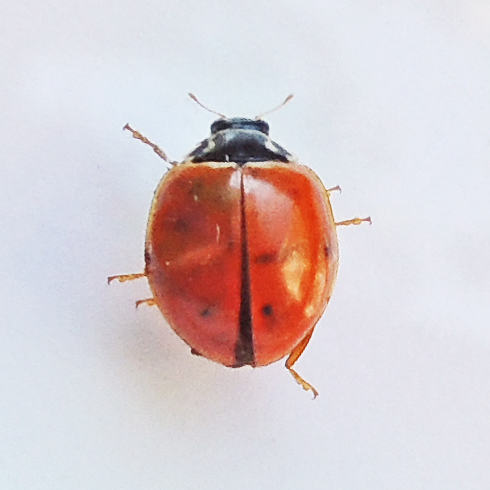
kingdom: Animalia
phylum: Arthropoda
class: Insecta
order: Coleoptera
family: Coccinellidae
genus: Cycloneda
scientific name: Cycloneda munda
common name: Polished lady beetle
